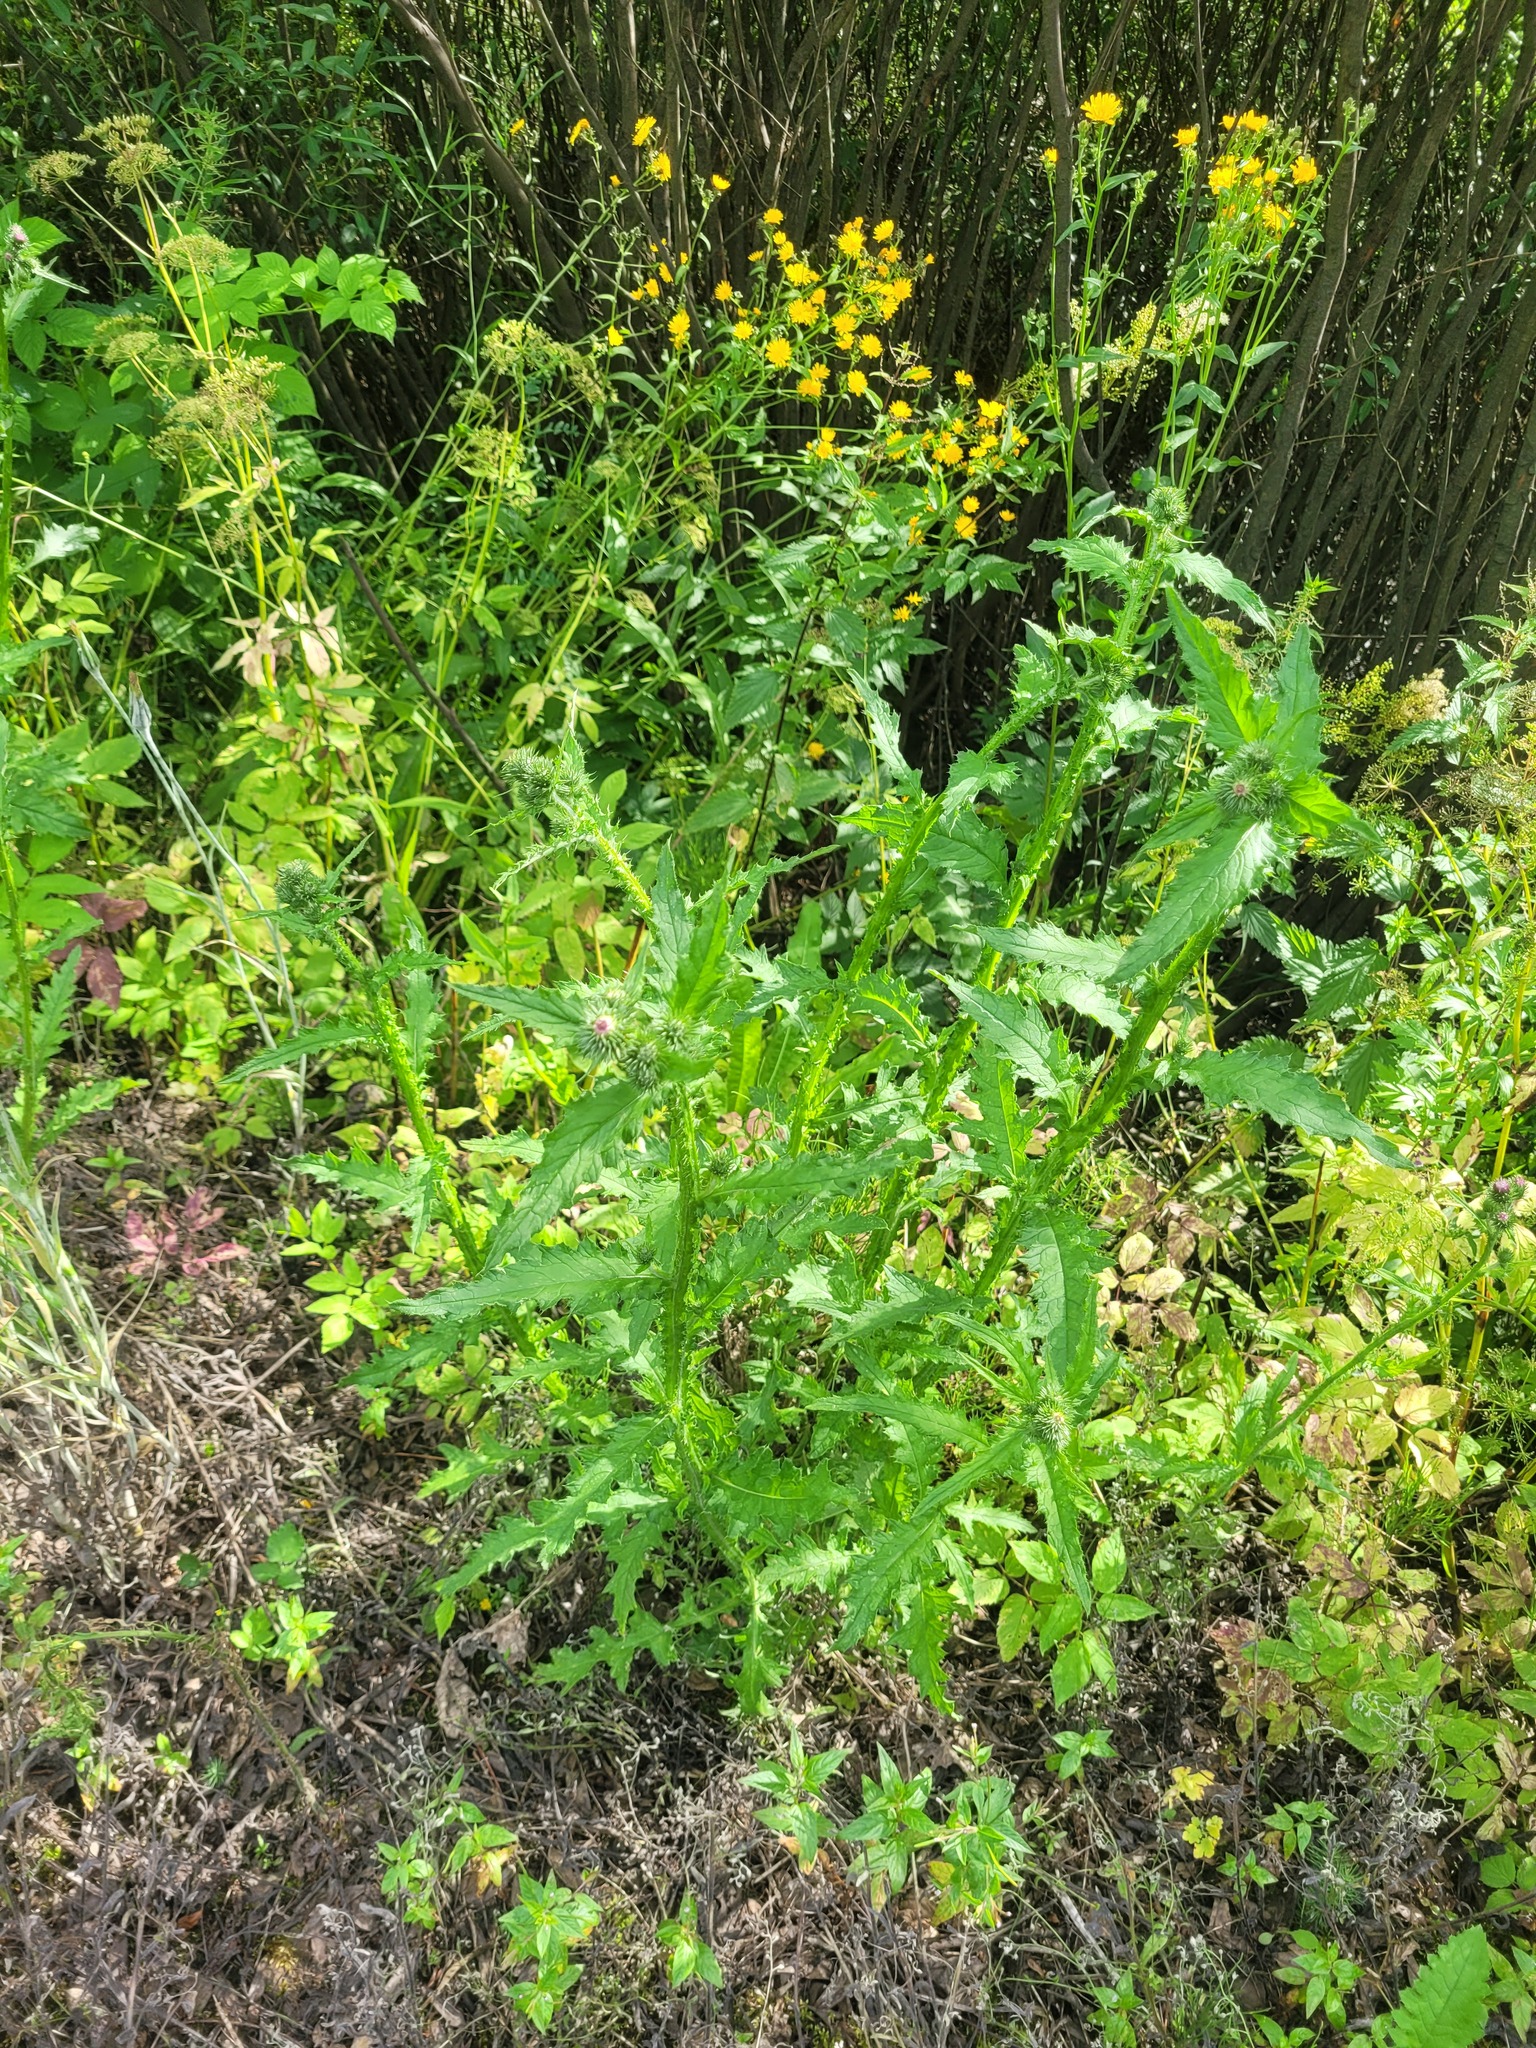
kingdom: Plantae
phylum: Tracheophyta
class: Magnoliopsida
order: Asterales
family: Asteraceae
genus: Carduus
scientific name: Carduus crispus
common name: Welted thistle
